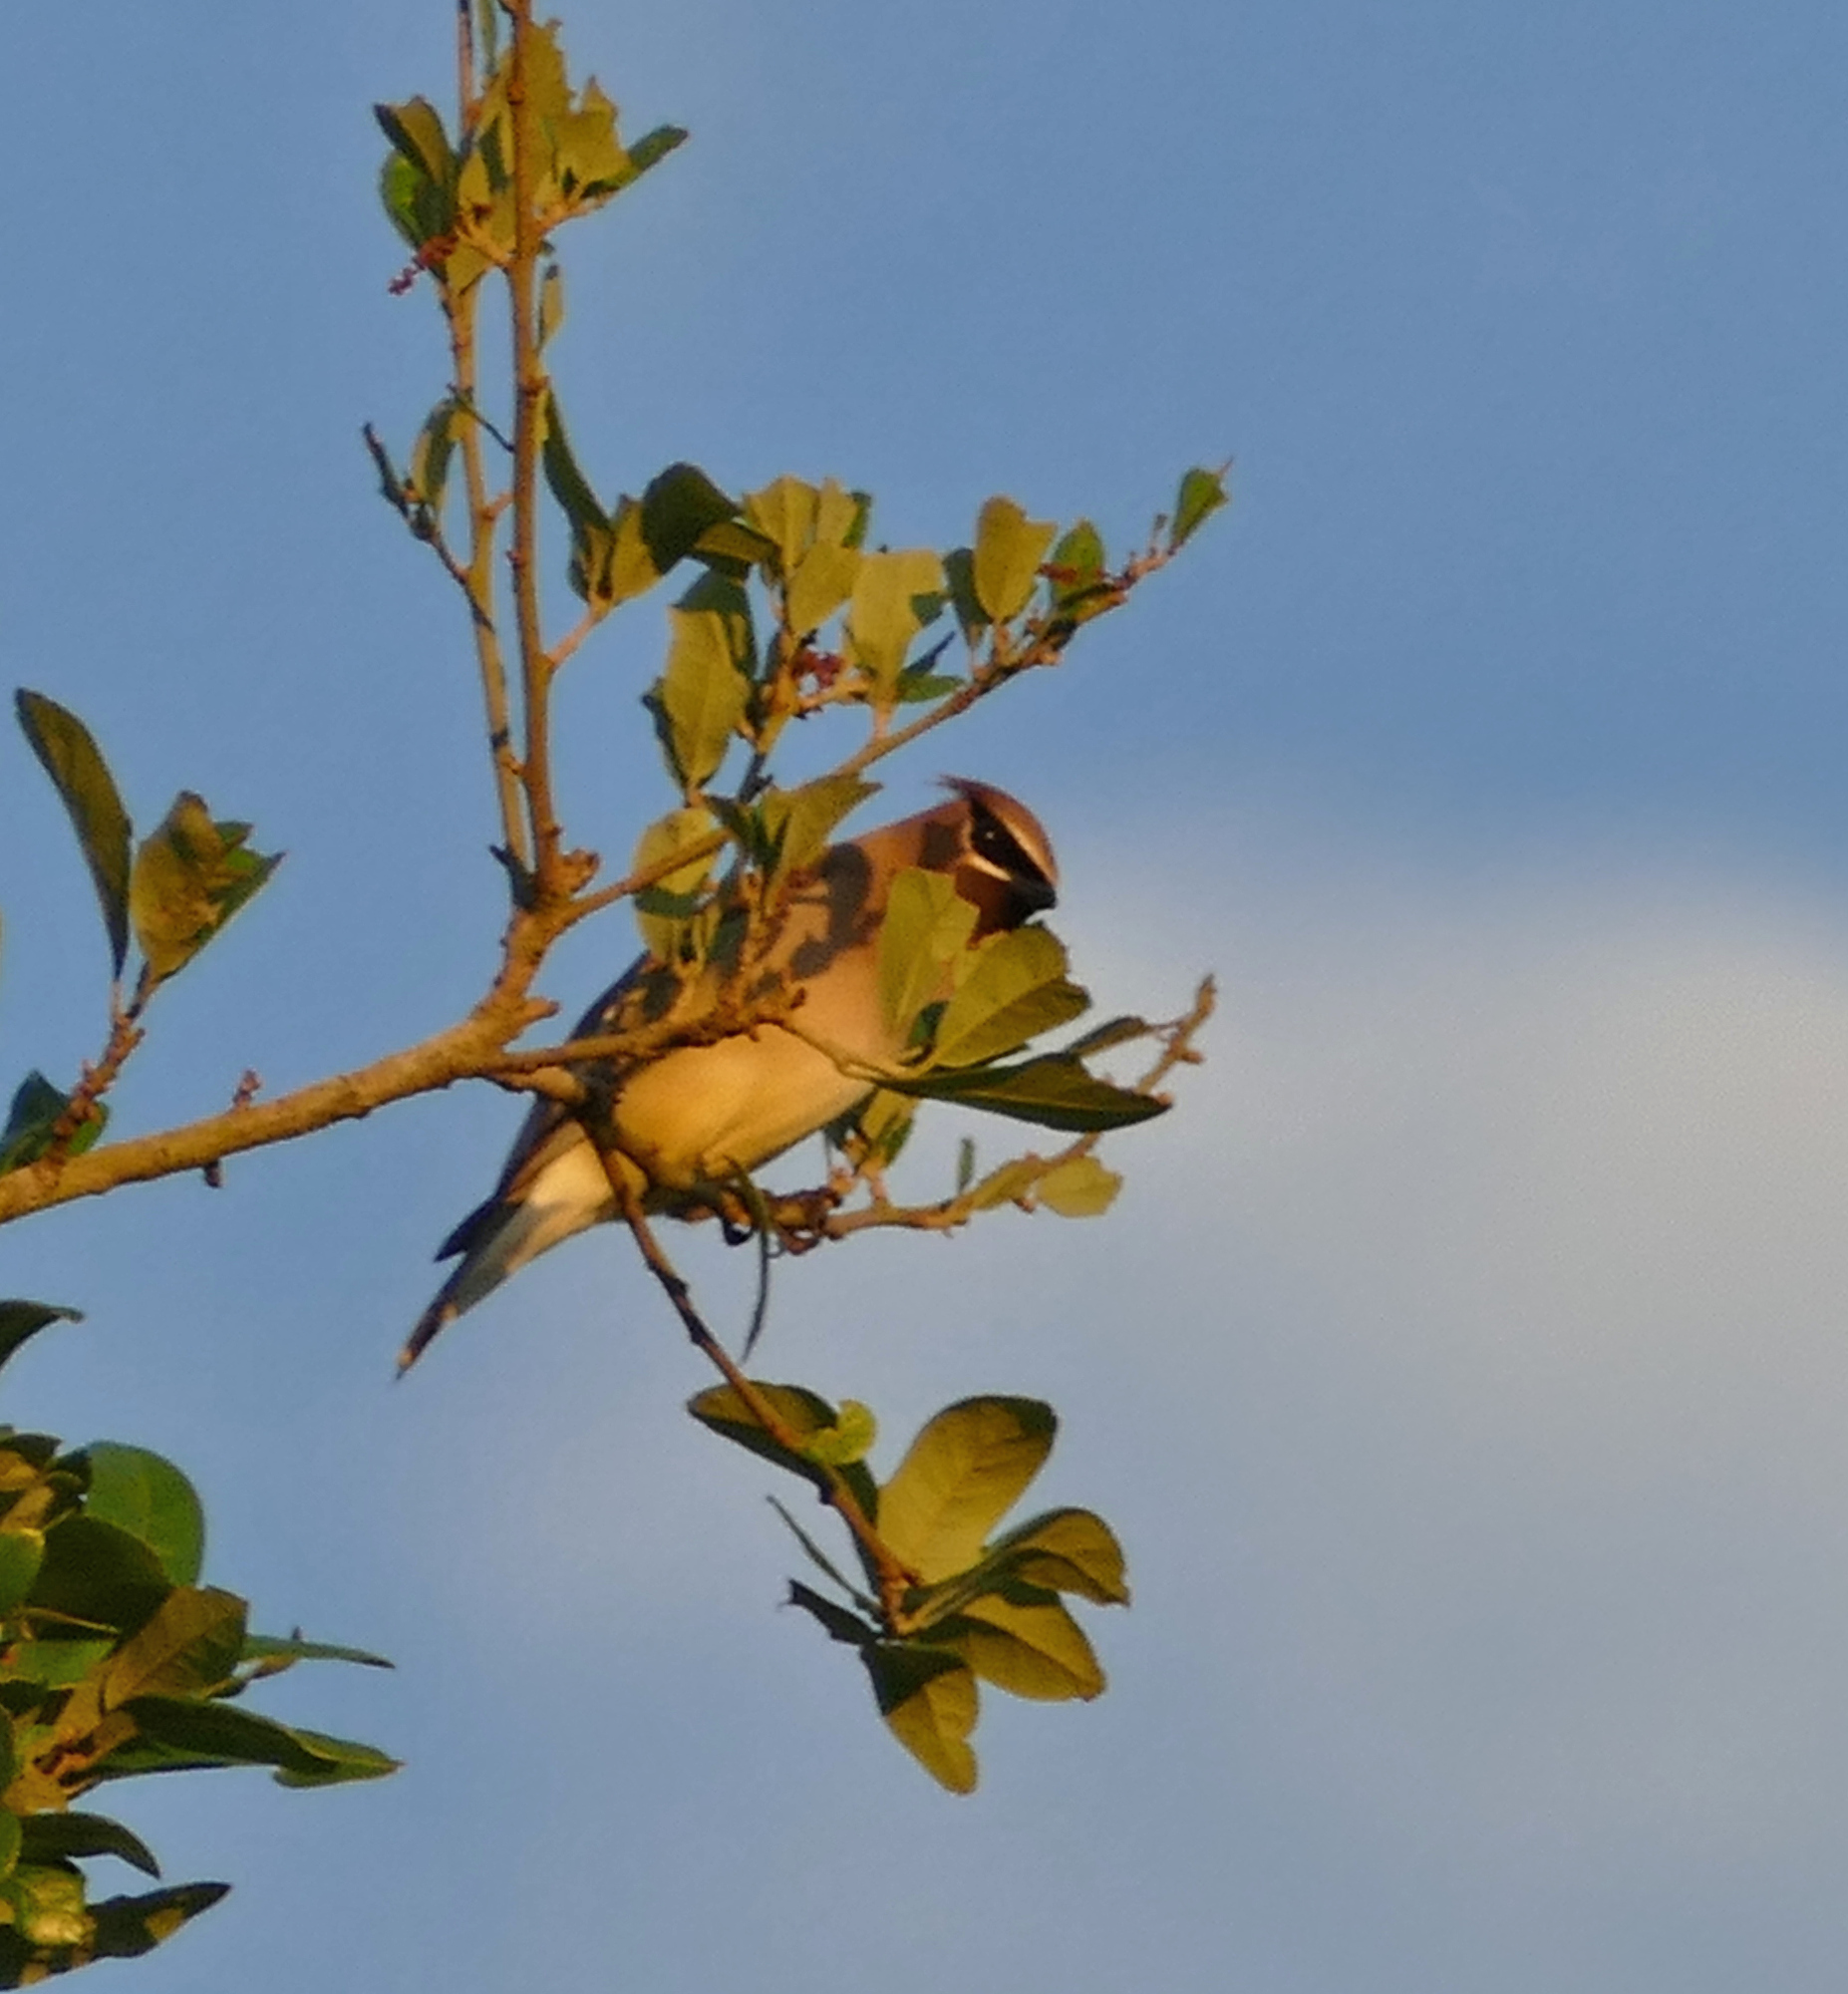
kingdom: Animalia
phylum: Chordata
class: Aves
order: Passeriformes
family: Bombycillidae
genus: Bombycilla
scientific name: Bombycilla cedrorum
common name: Cedar waxwing
